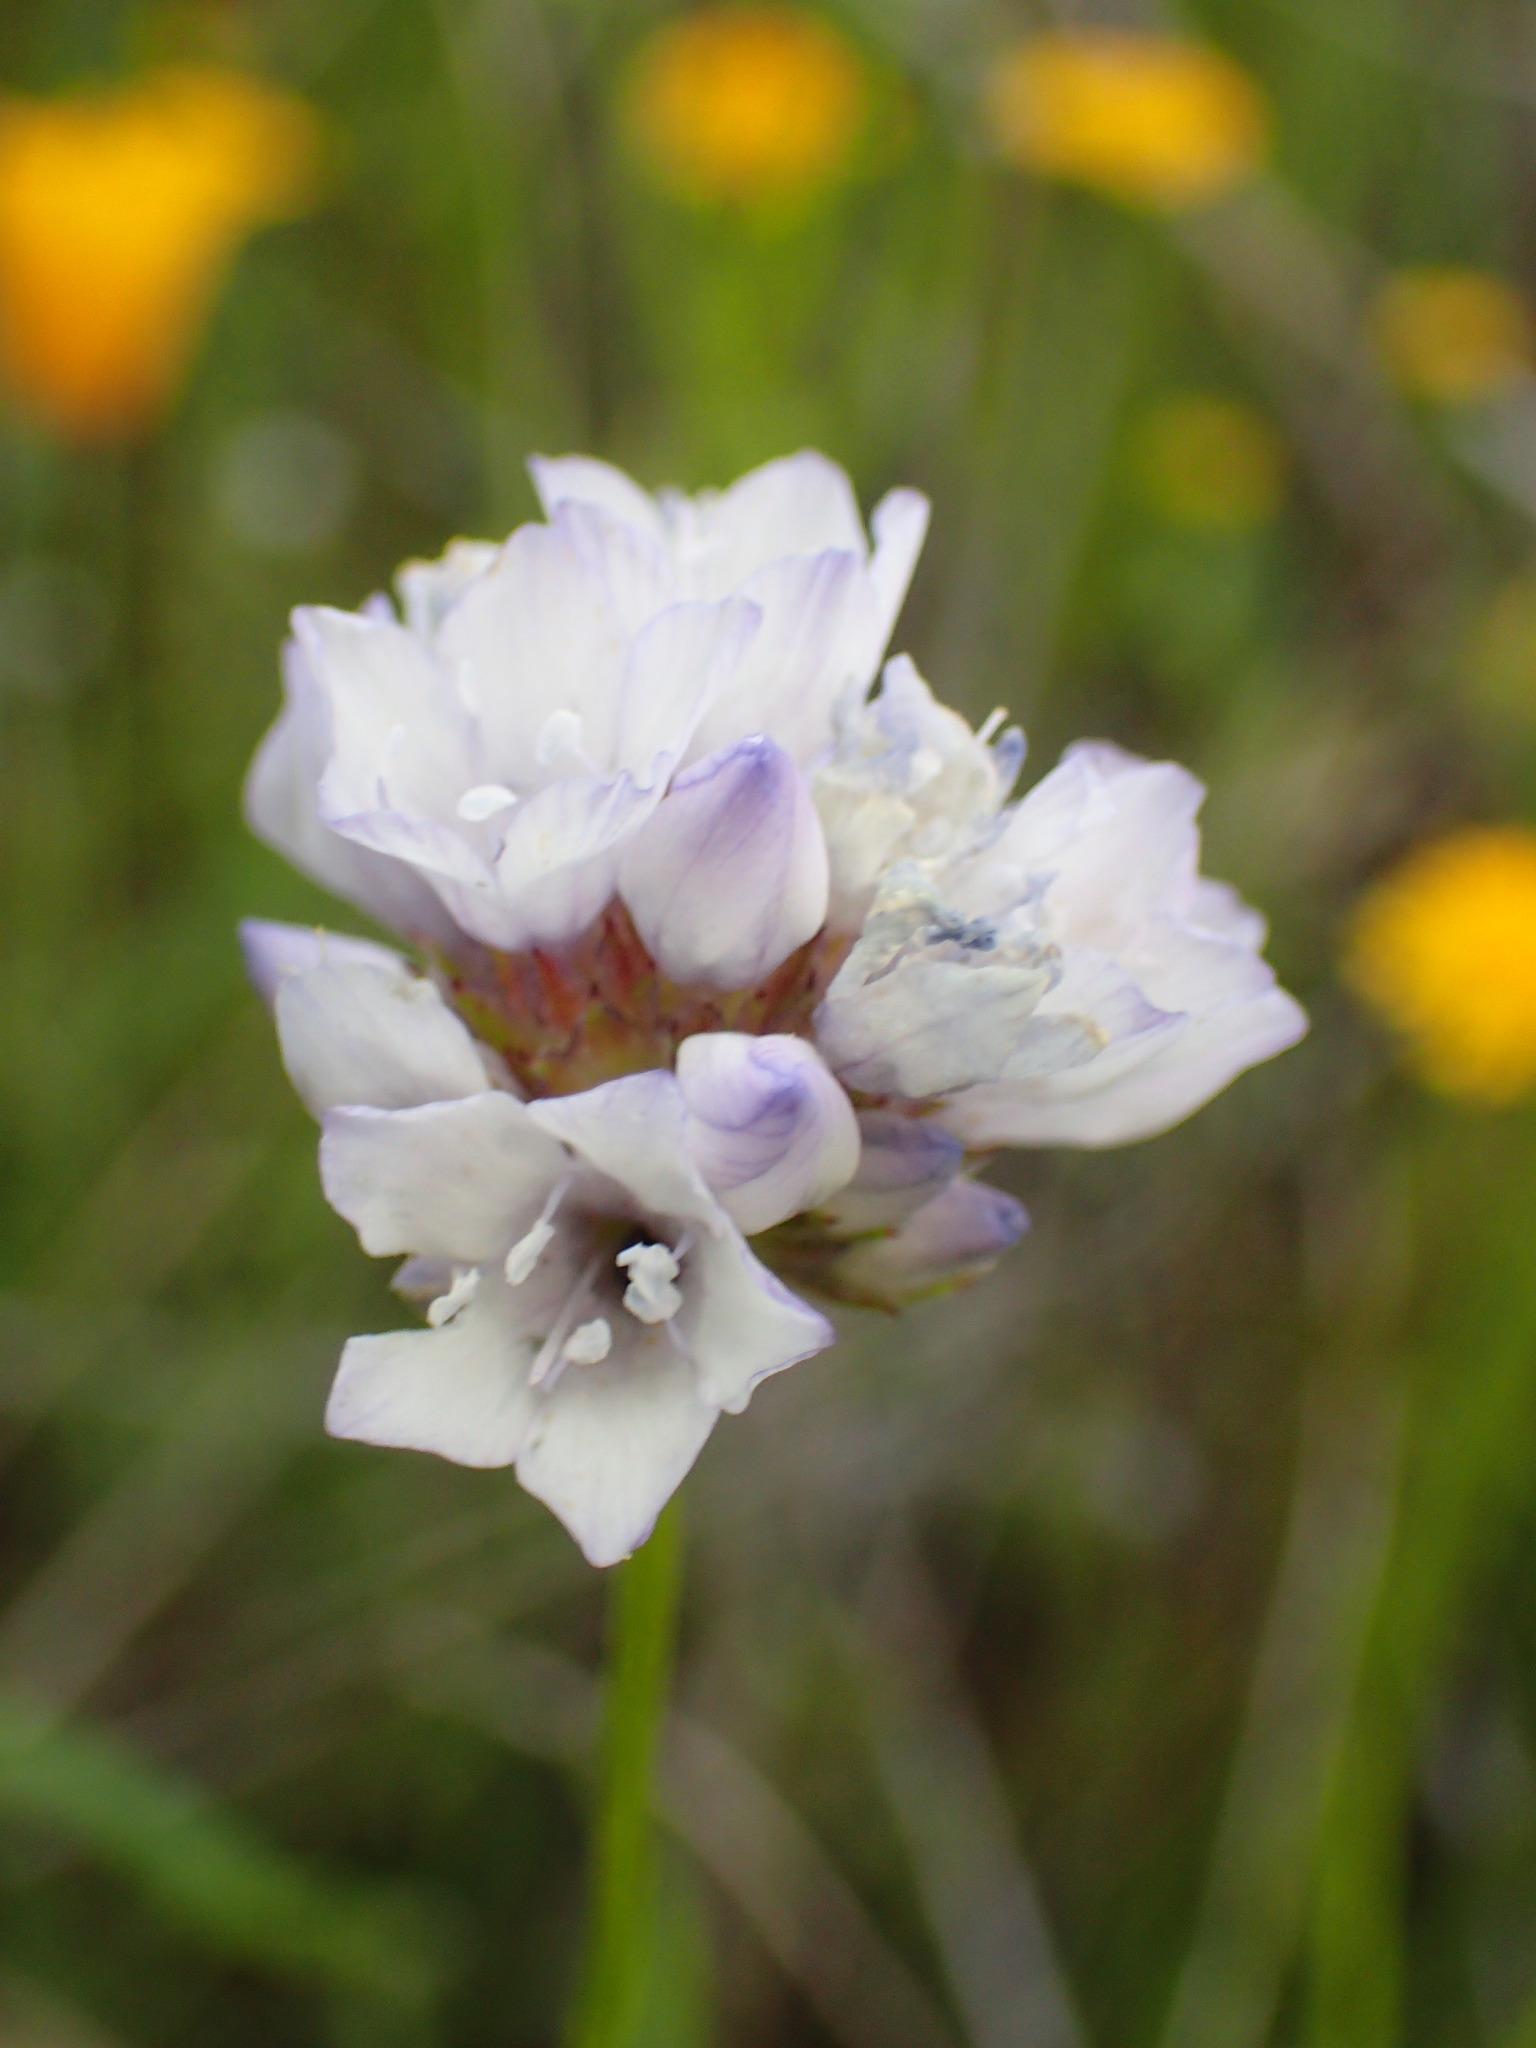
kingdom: Plantae
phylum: Tracheophyta
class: Magnoliopsida
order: Ericales
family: Polemoniaceae
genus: Gilia
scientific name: Gilia capitata
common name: Bluehead gilia
